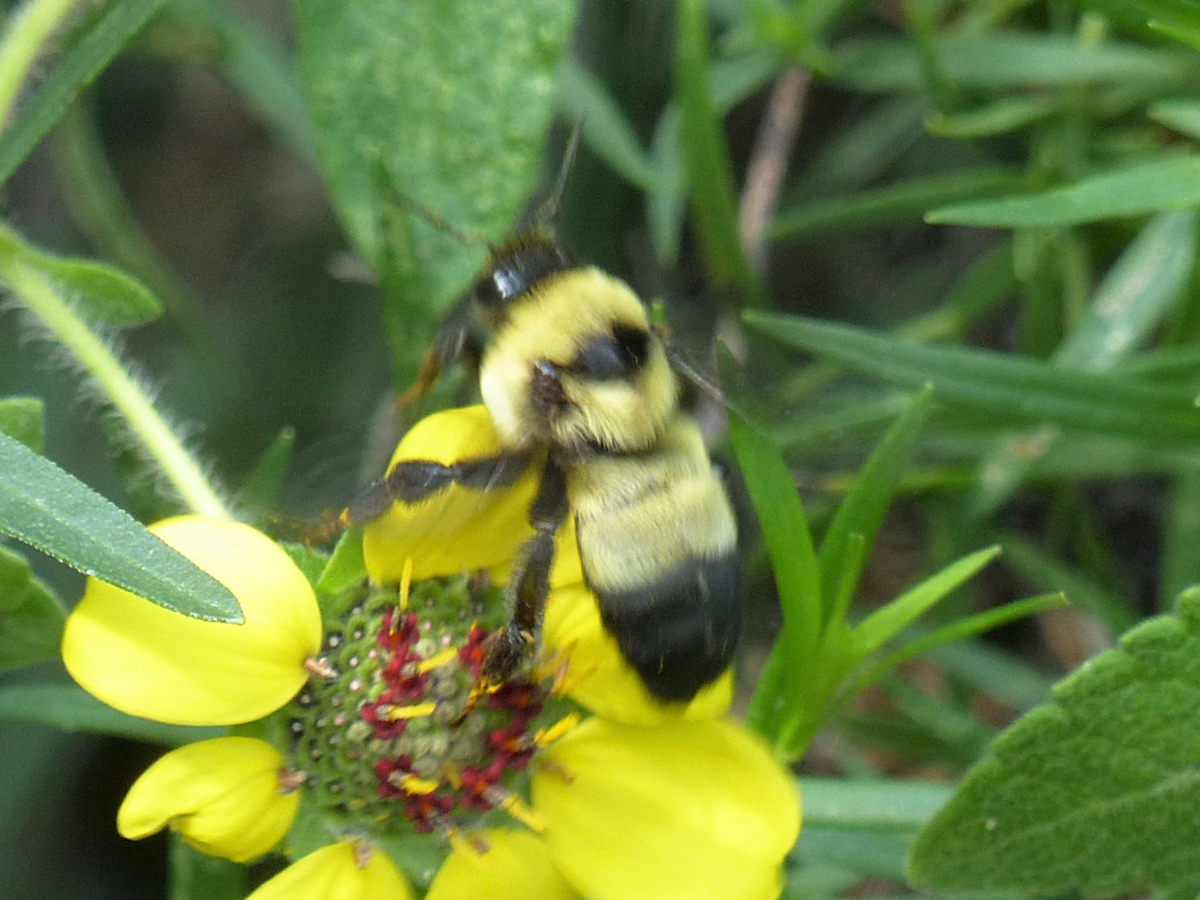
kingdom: Animalia
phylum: Arthropoda
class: Insecta
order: Hymenoptera
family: Apidae
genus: Bombus
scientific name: Bombus fraternus
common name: Southern plains bumble bee
